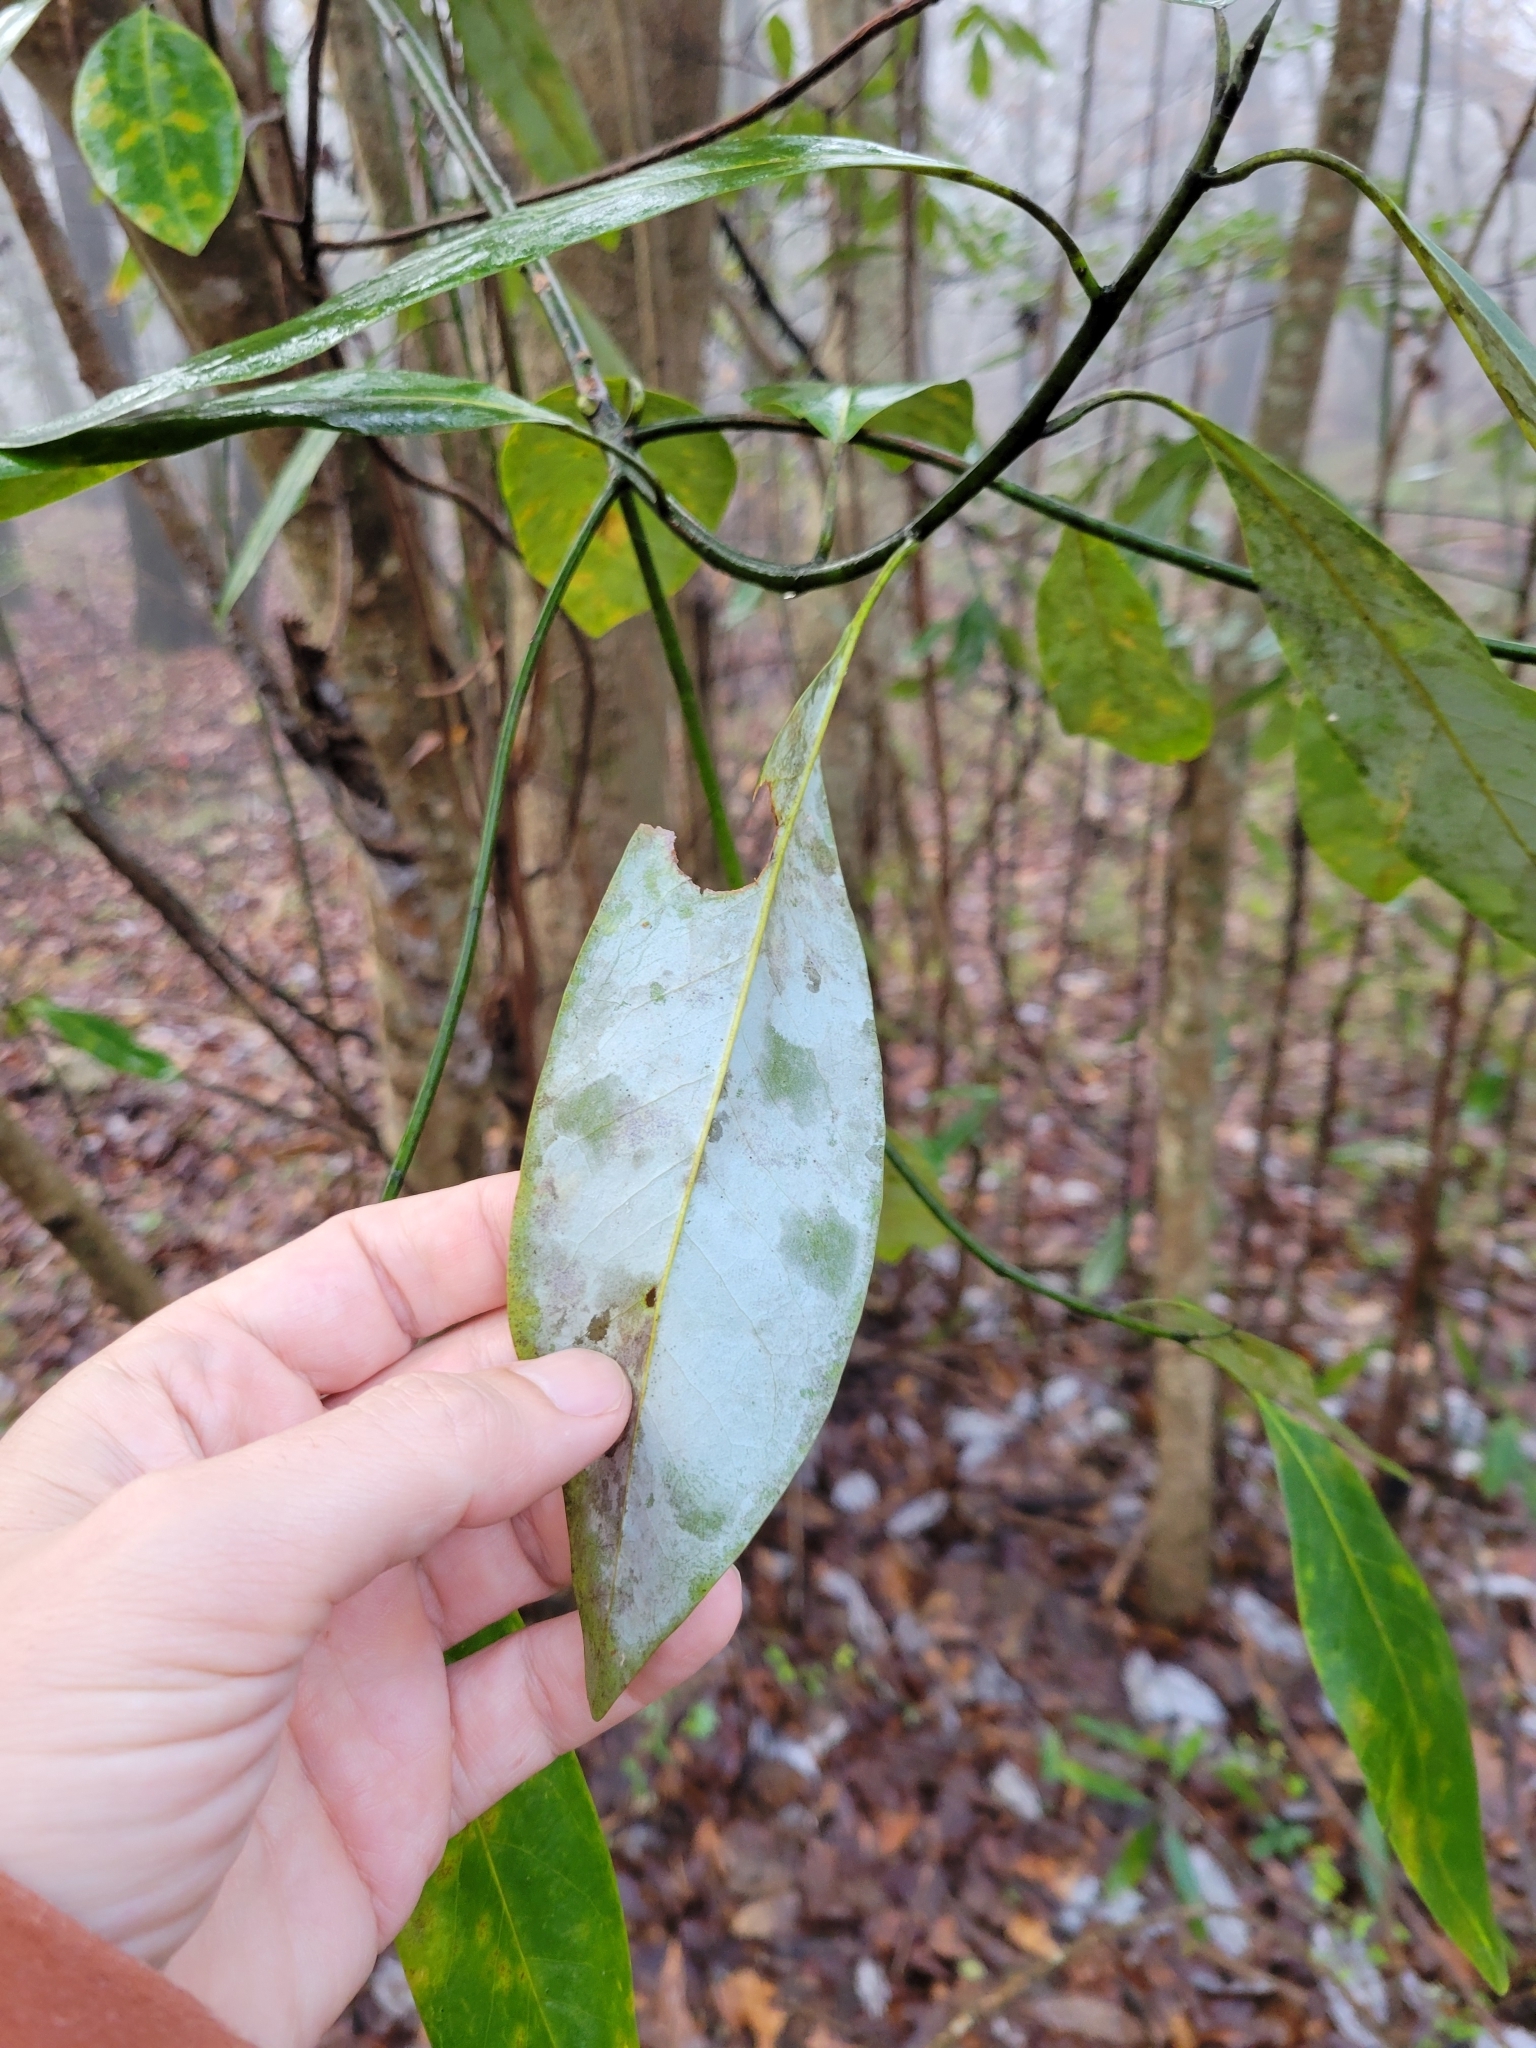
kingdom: Plantae
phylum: Tracheophyta
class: Magnoliopsida
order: Magnoliales
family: Magnoliaceae
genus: Magnolia
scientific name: Magnolia virginiana
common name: Swamp bay
